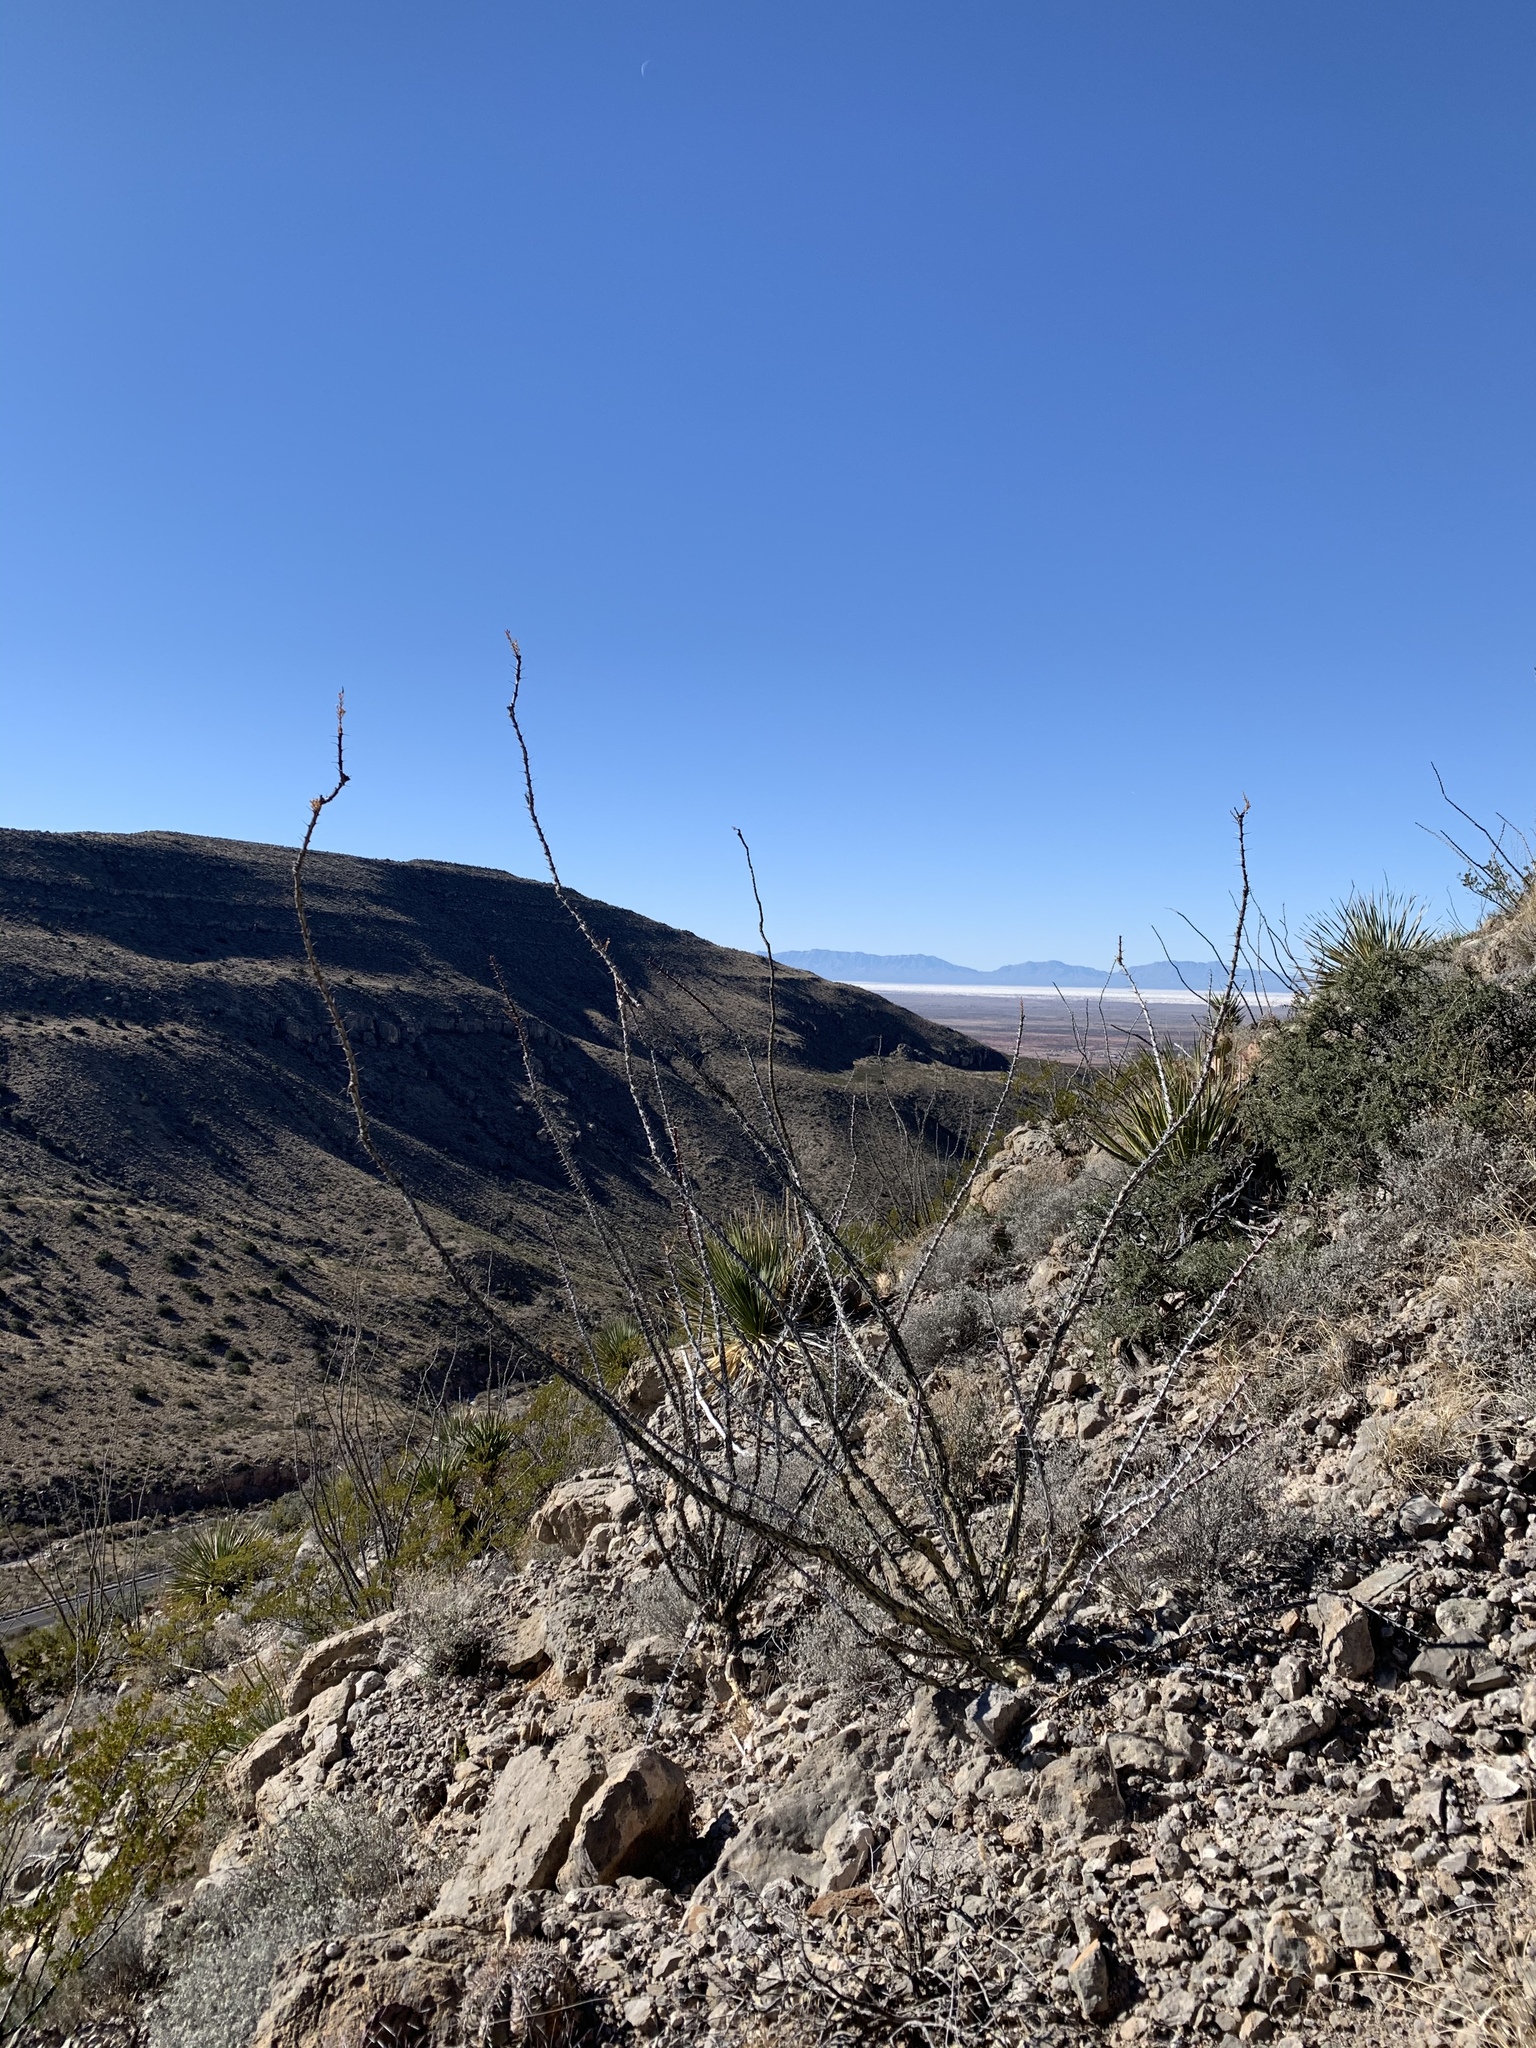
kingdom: Plantae
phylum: Tracheophyta
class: Magnoliopsida
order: Ericales
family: Fouquieriaceae
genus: Fouquieria
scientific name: Fouquieria splendens
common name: Vine-cactus
